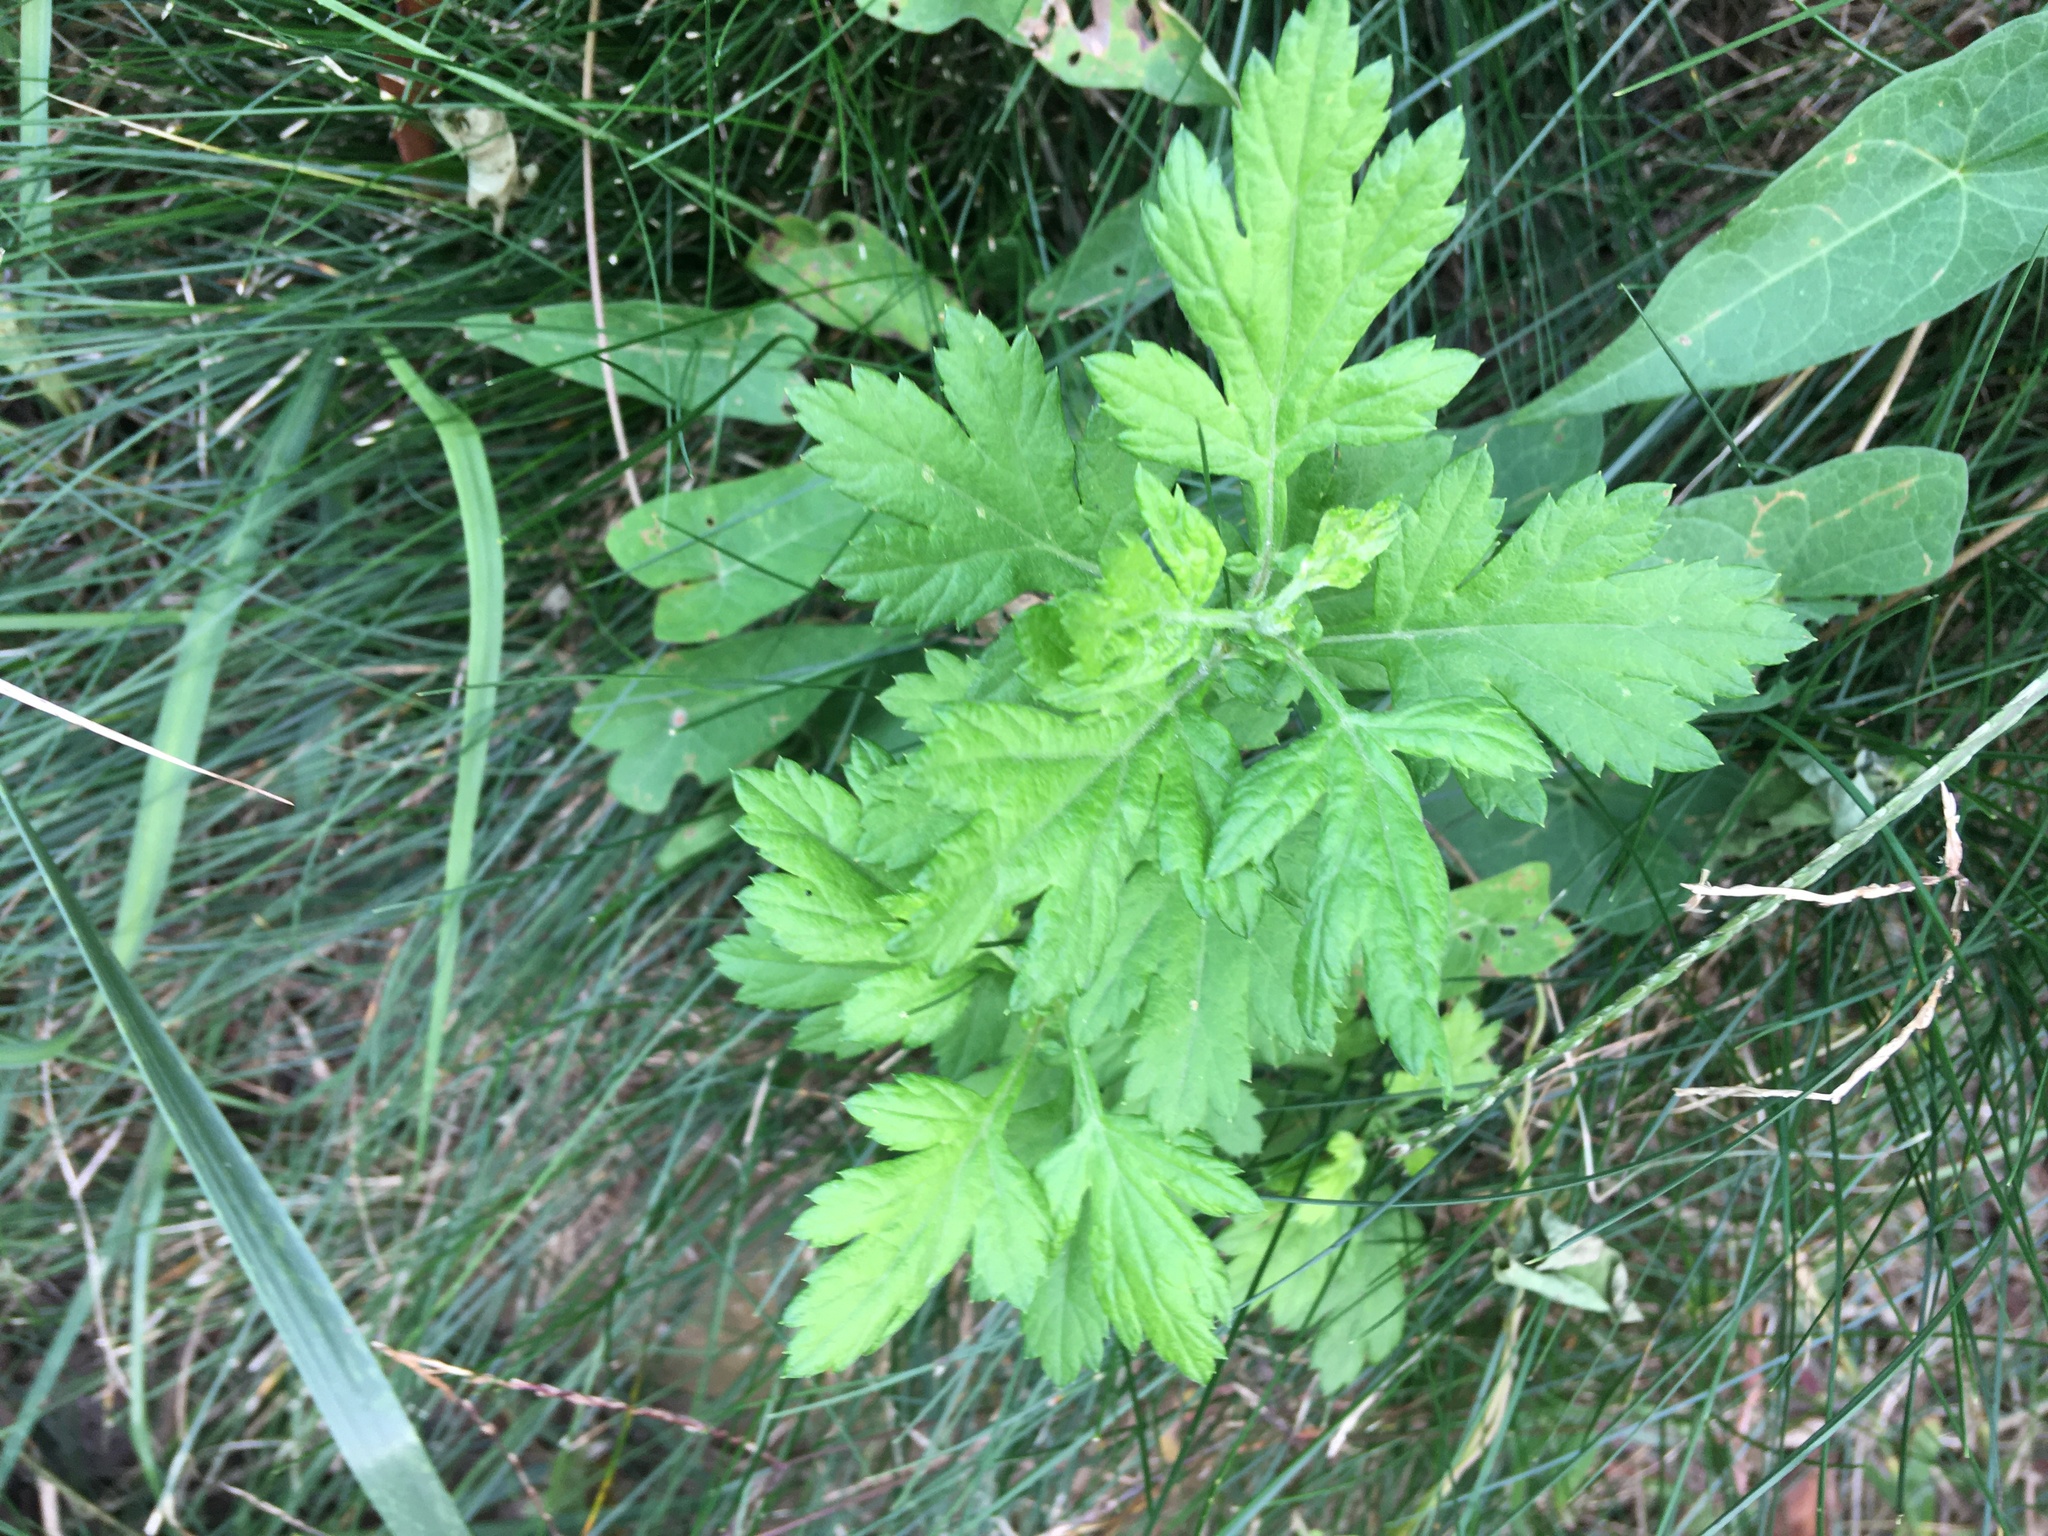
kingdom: Plantae
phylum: Tracheophyta
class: Magnoliopsida
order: Asterales
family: Asteraceae
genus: Artemisia
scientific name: Artemisia vulgaris
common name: Mugwort
